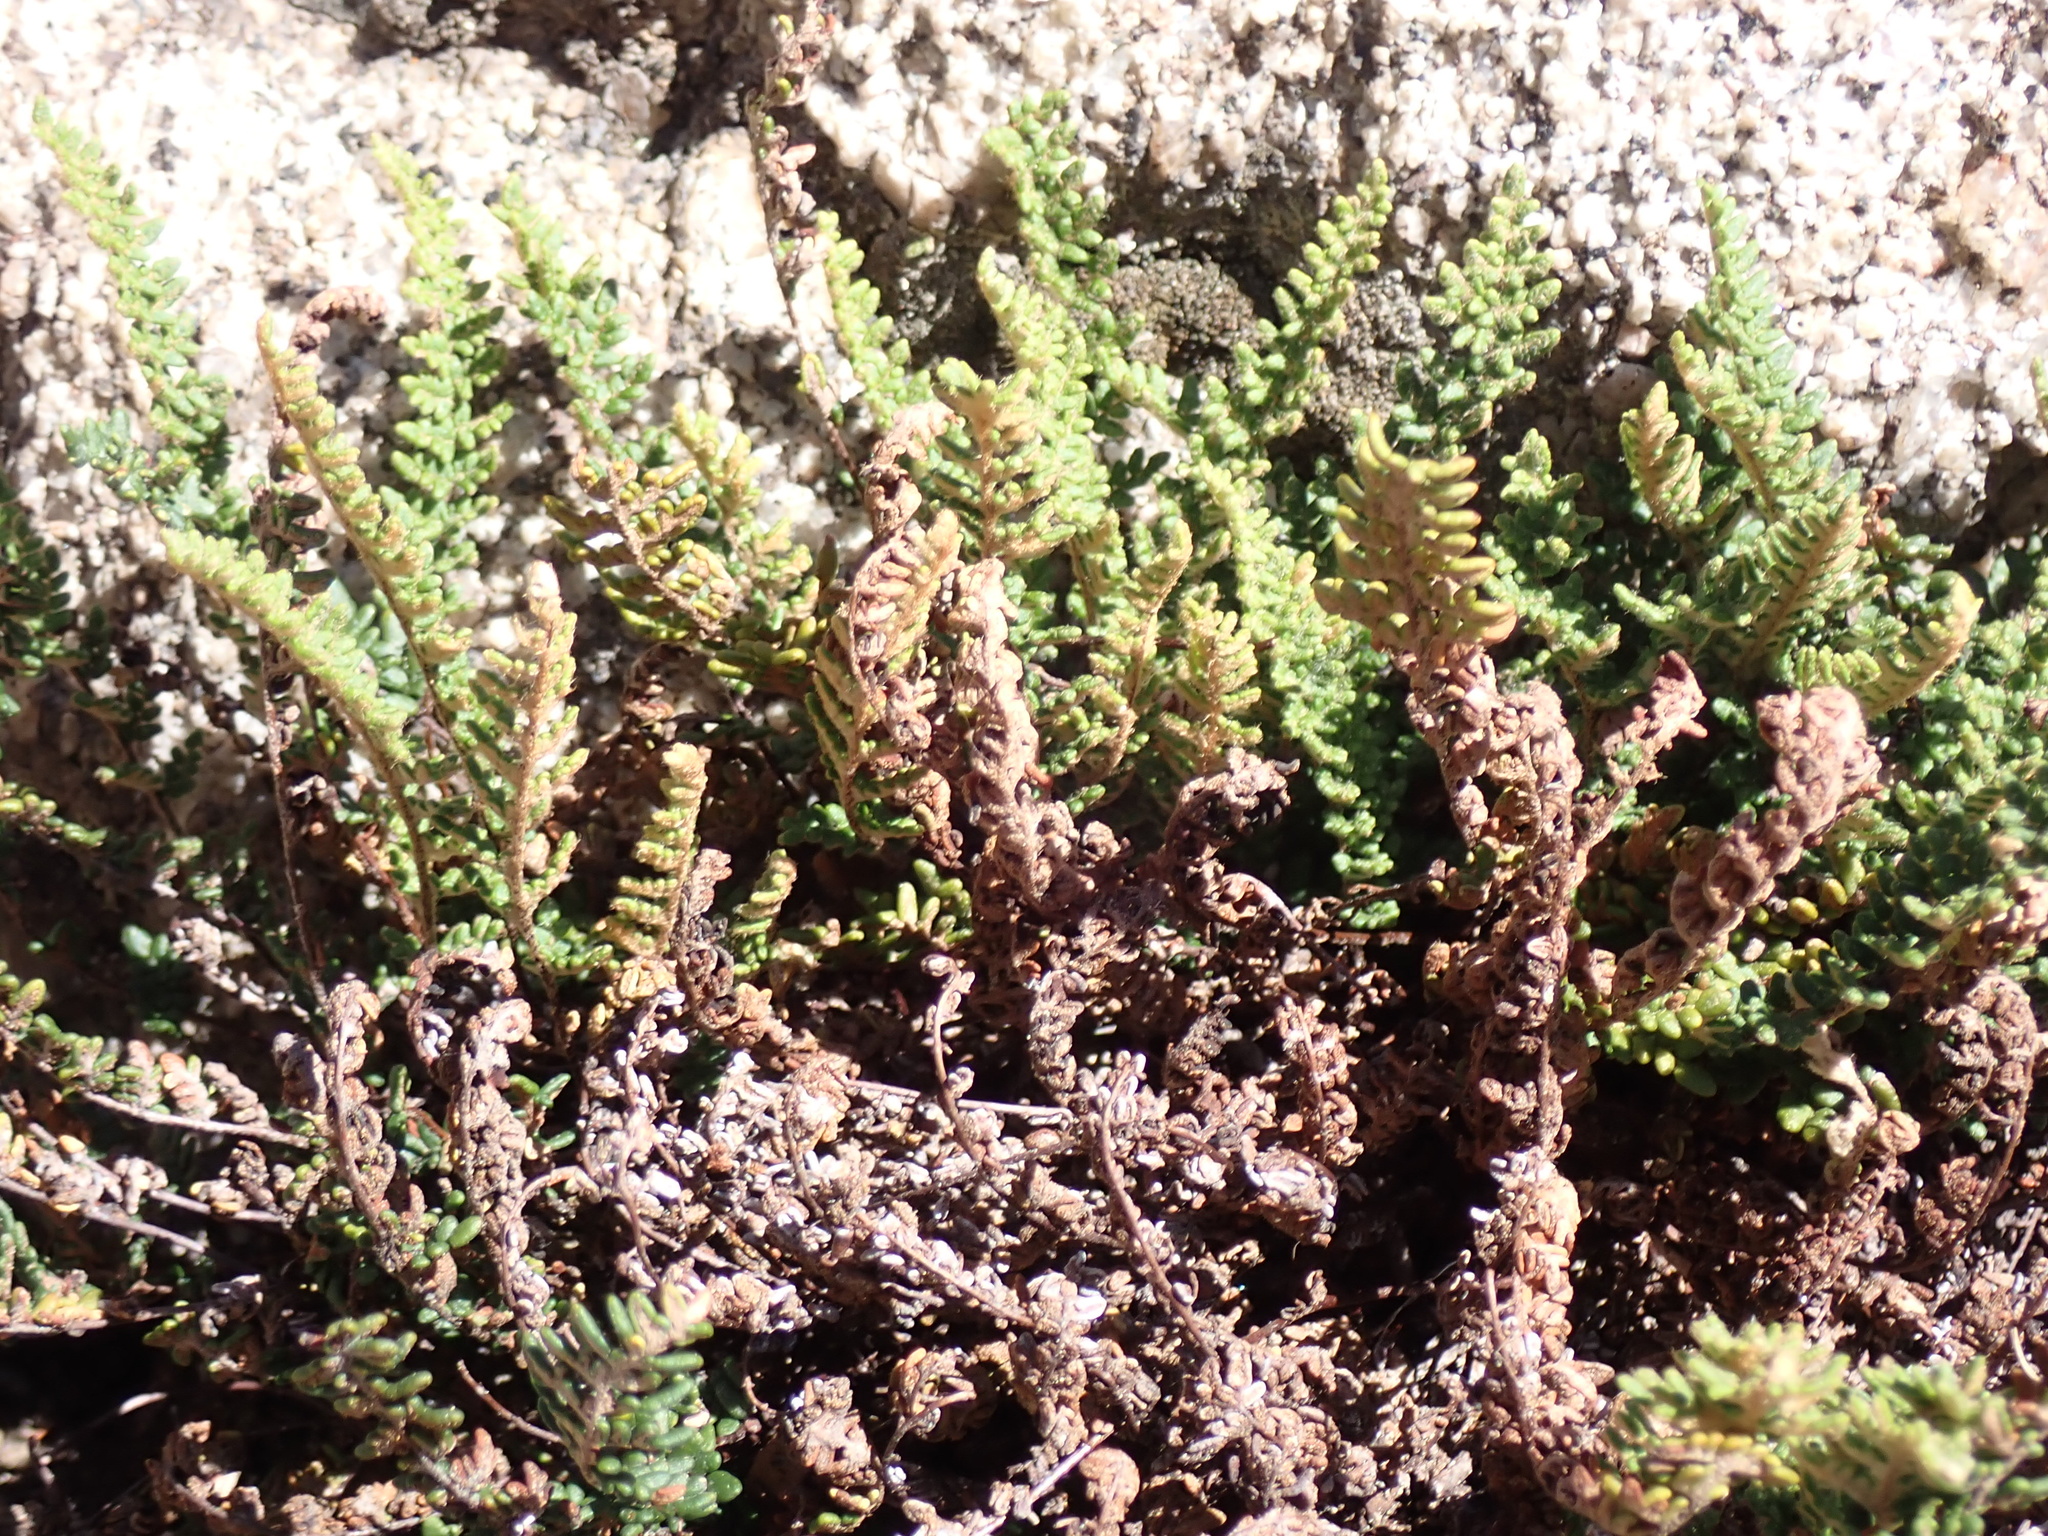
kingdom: Plantae
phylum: Tracheophyta
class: Polypodiopsida
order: Polypodiales
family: Pteridaceae
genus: Myriopteris
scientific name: Myriopteris gracillima
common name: Lace fern
